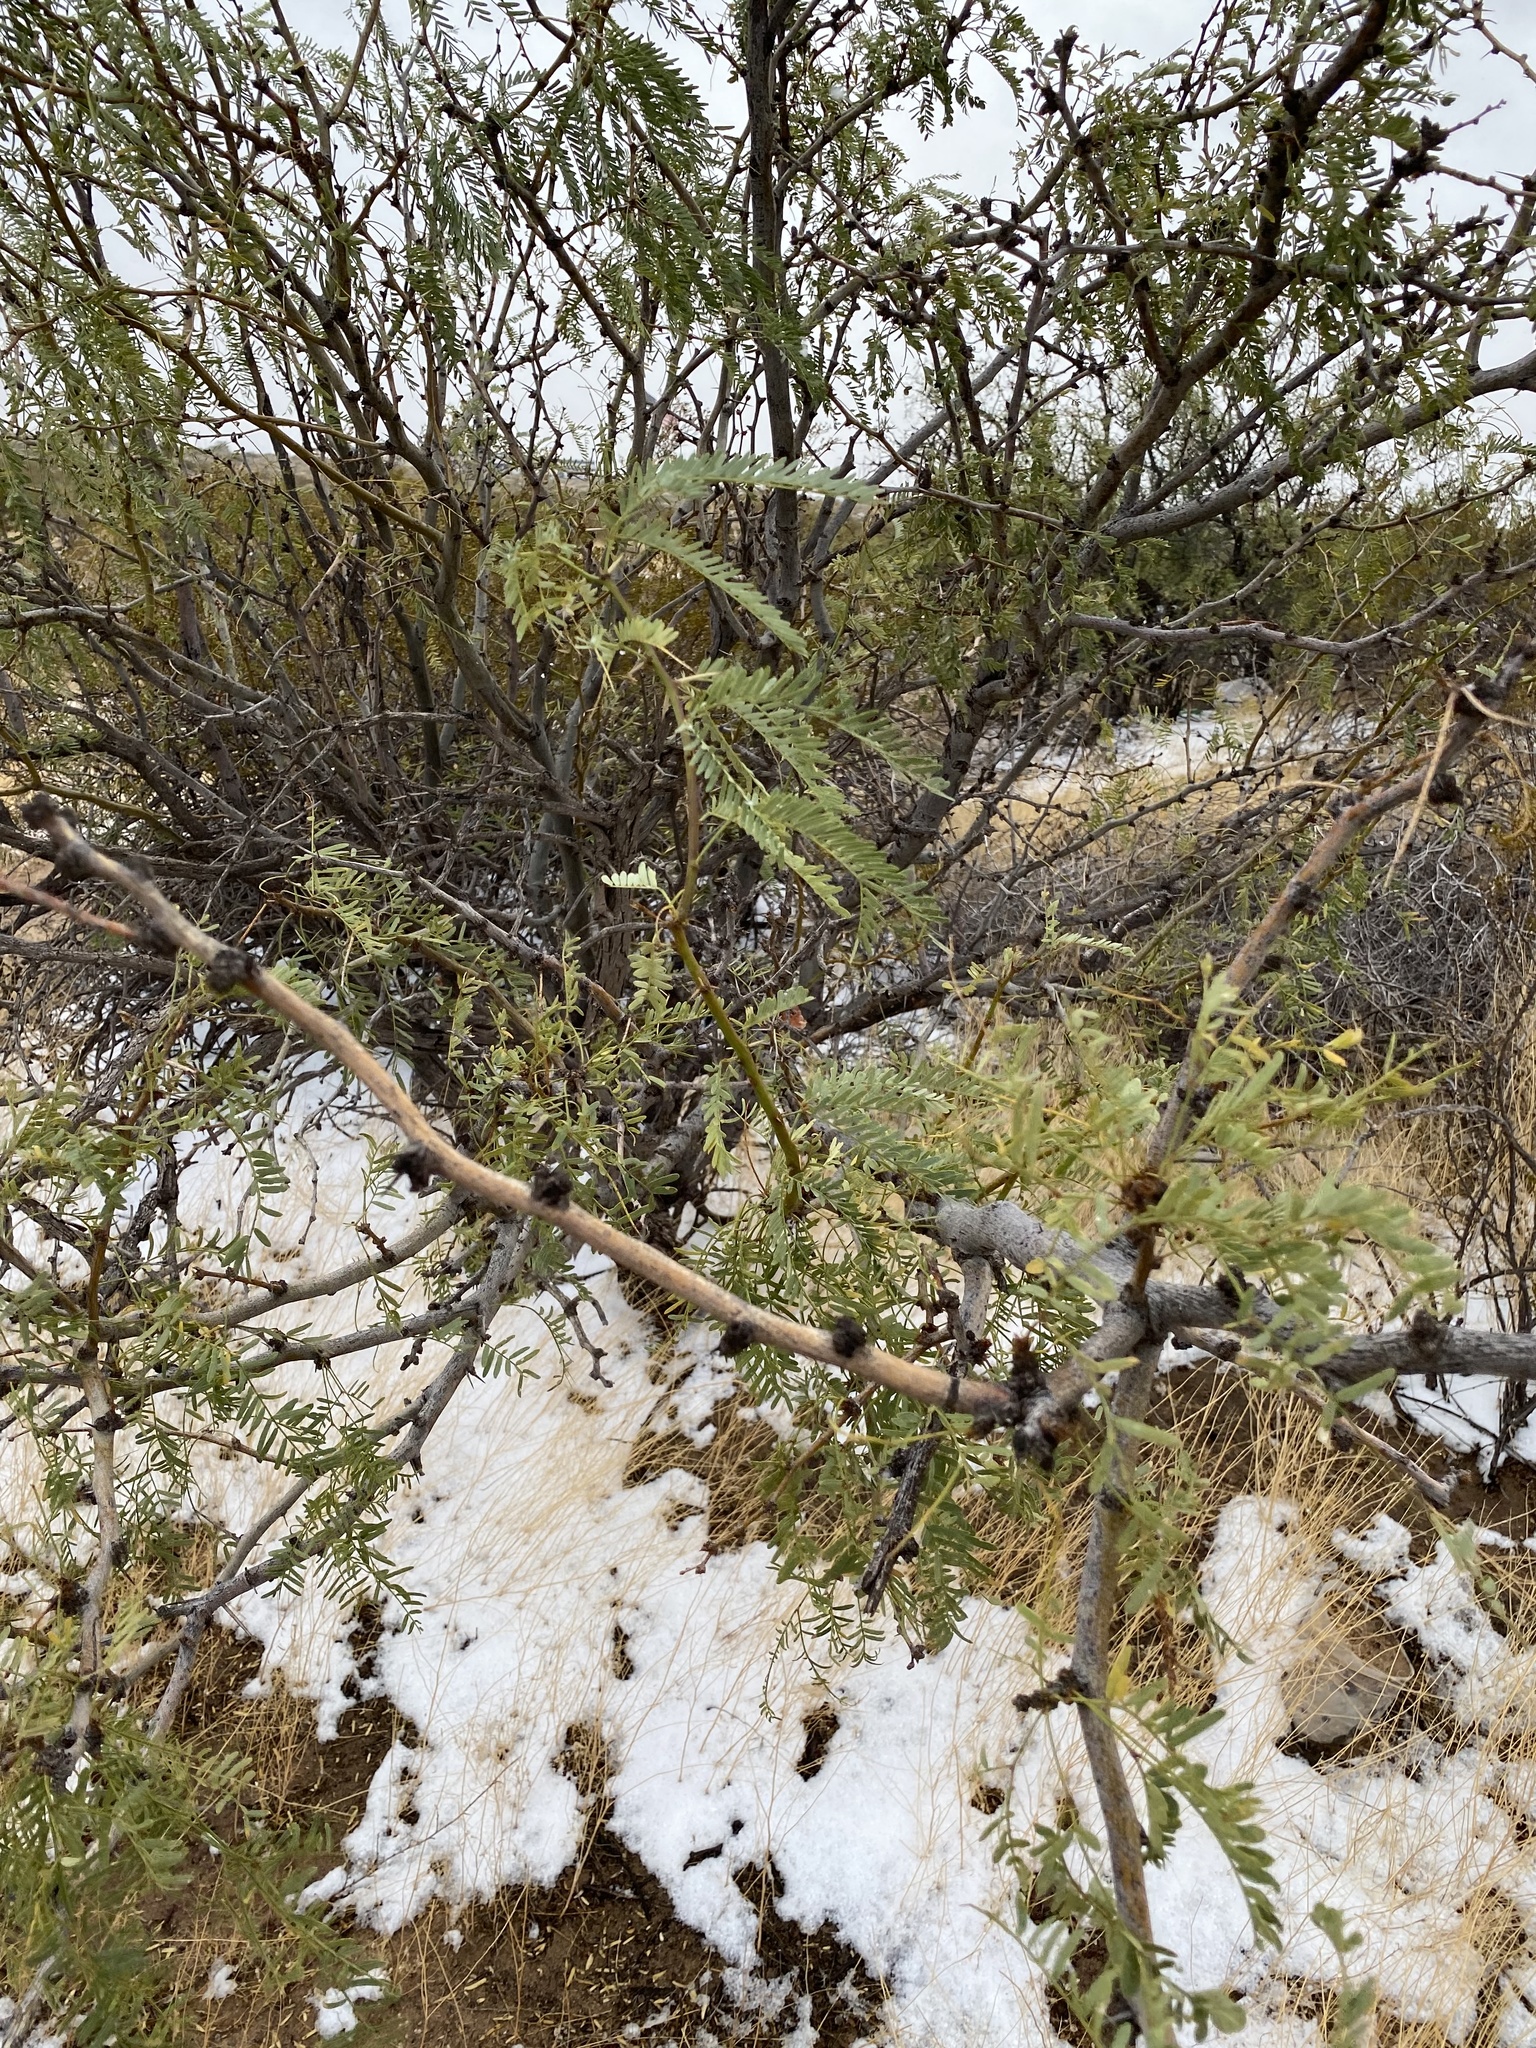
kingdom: Plantae
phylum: Tracheophyta
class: Magnoliopsida
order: Fabales
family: Fabaceae
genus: Prosopis
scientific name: Prosopis glandulosa
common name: Honey mesquite
